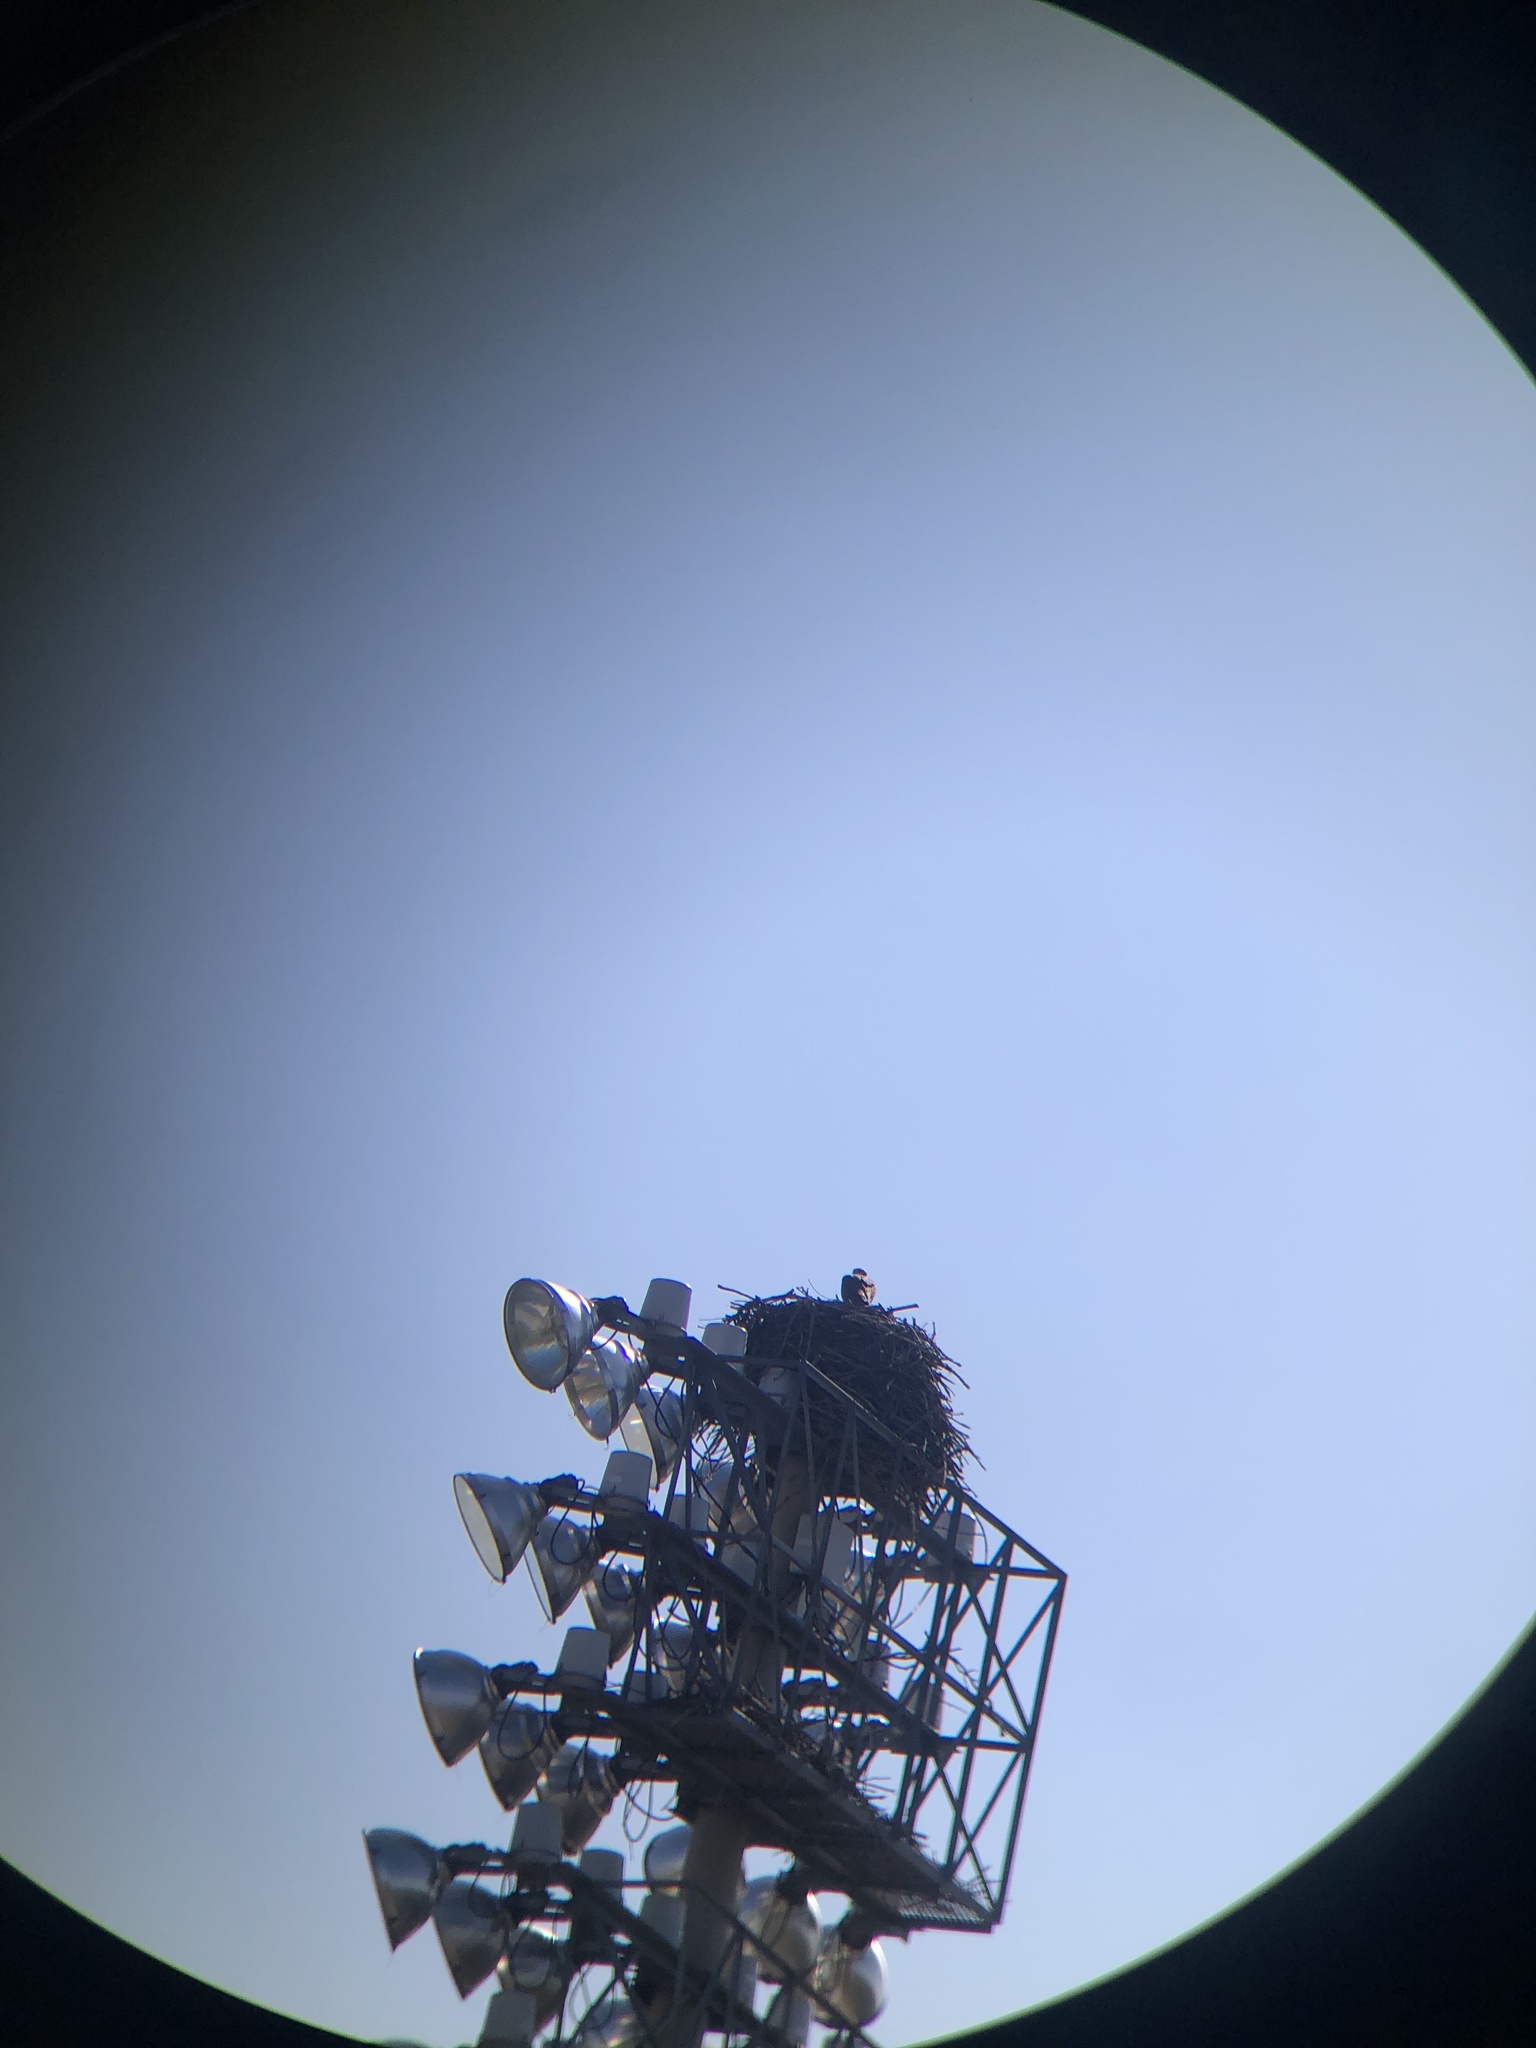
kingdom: Animalia
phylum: Chordata
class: Aves
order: Accipitriformes
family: Pandionidae
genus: Pandion
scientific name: Pandion haliaetus
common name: Osprey
